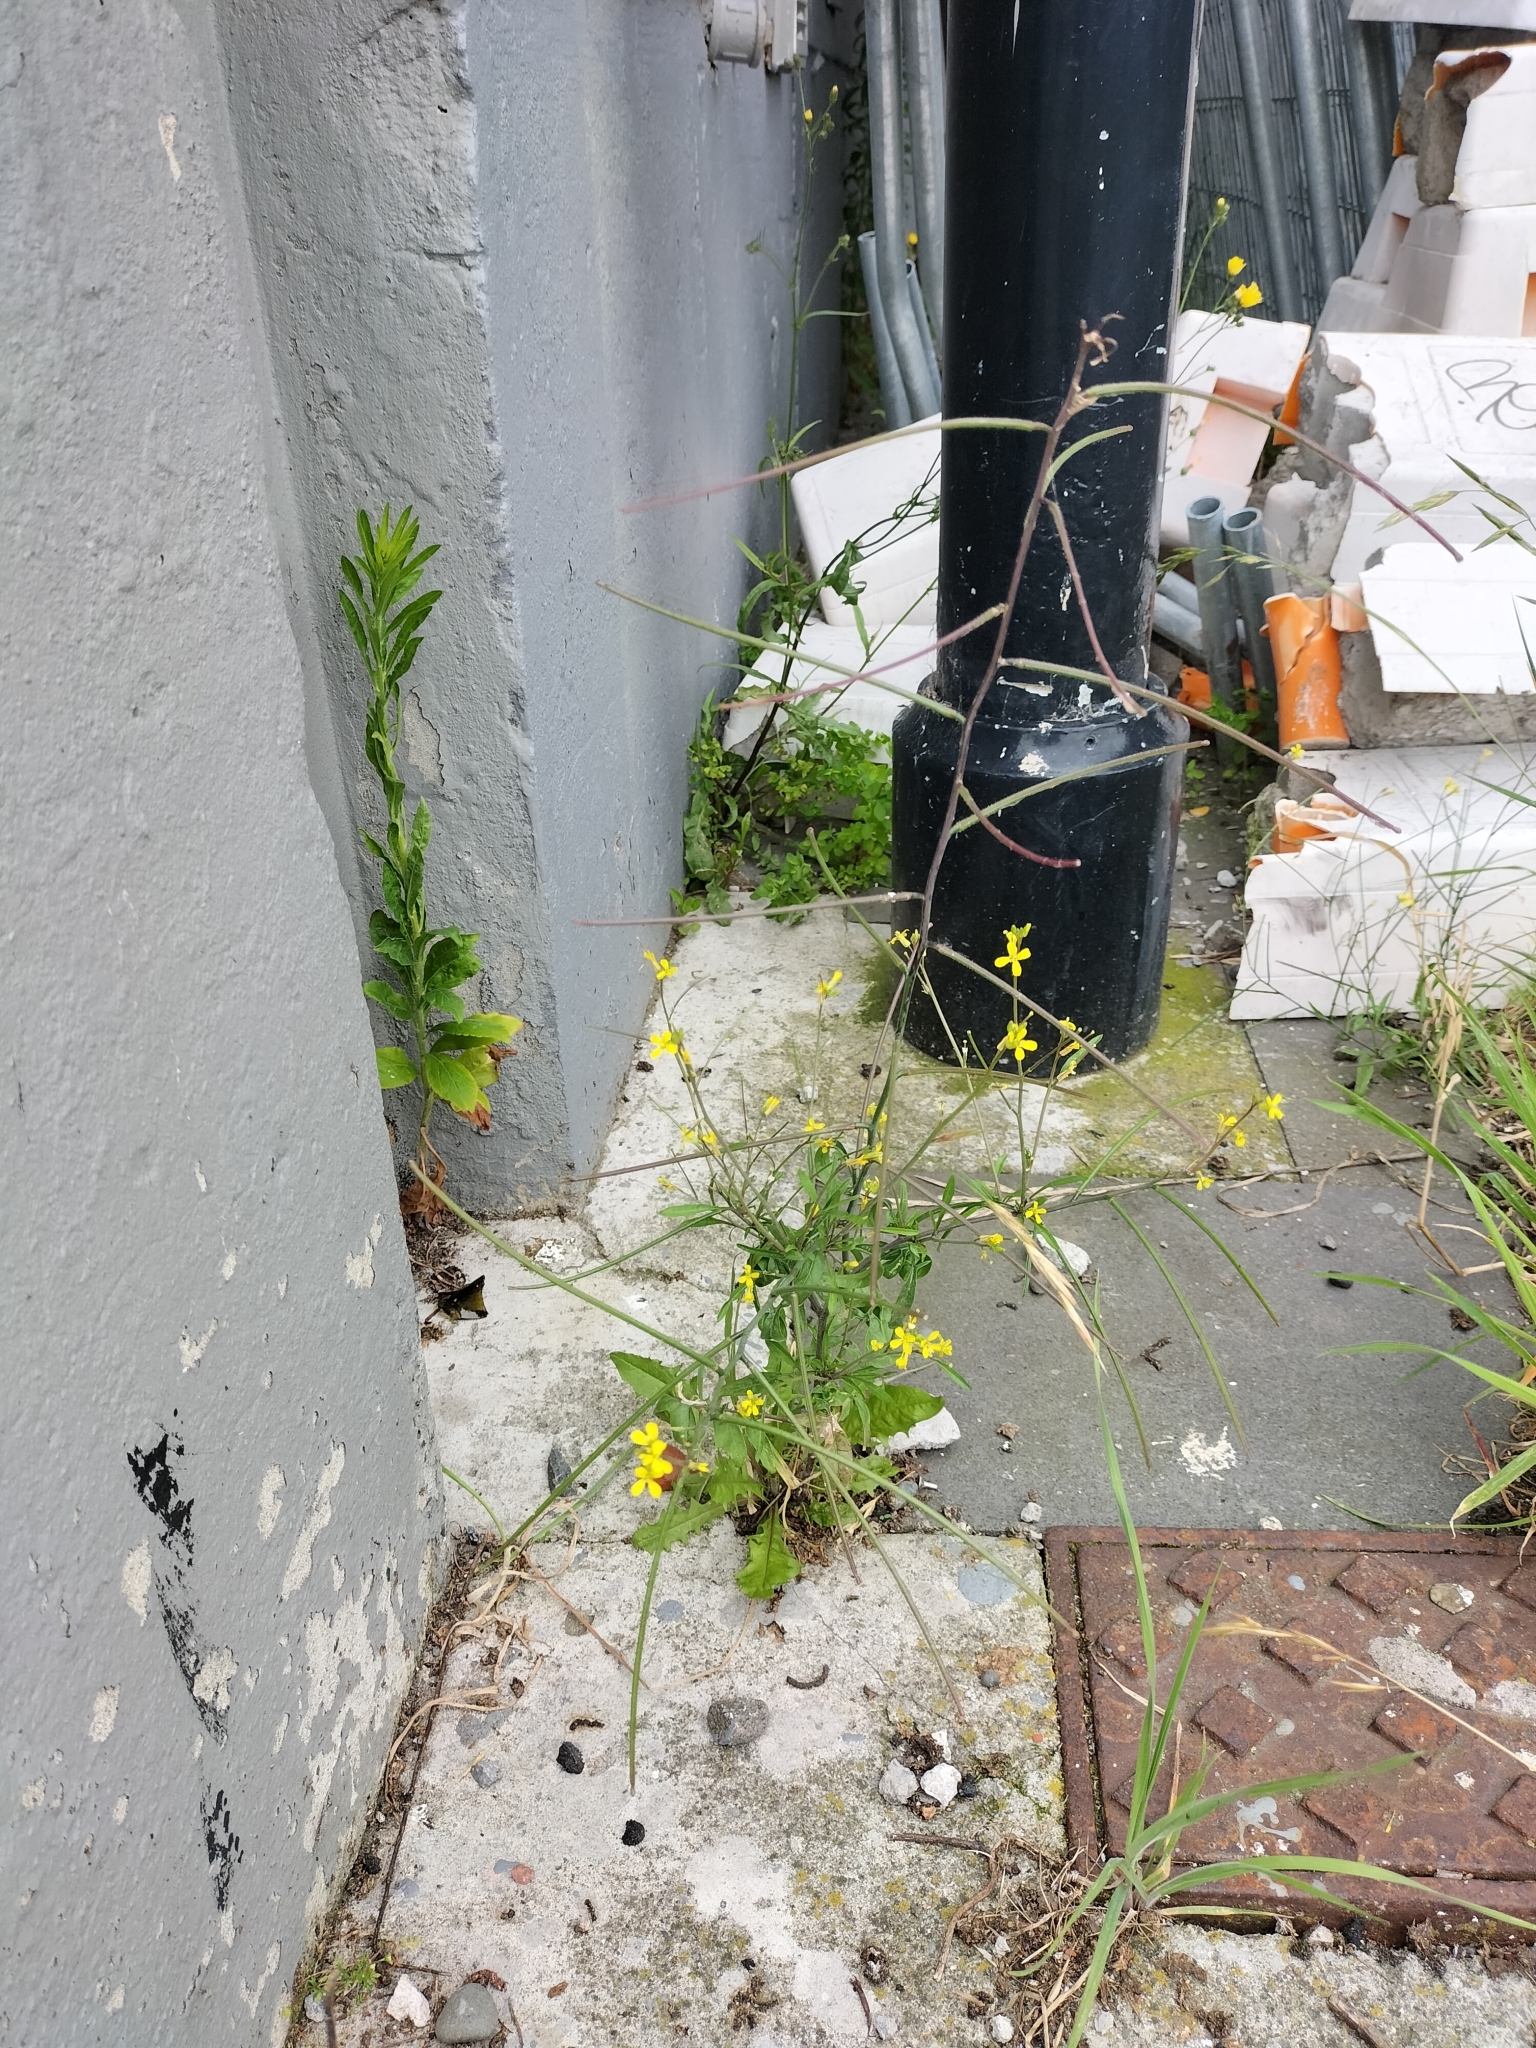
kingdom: Plantae
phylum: Tracheophyta
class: Magnoliopsida
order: Brassicales
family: Brassicaceae
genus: Sisymbrium
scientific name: Sisymbrium orientale
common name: Eastern rocket
